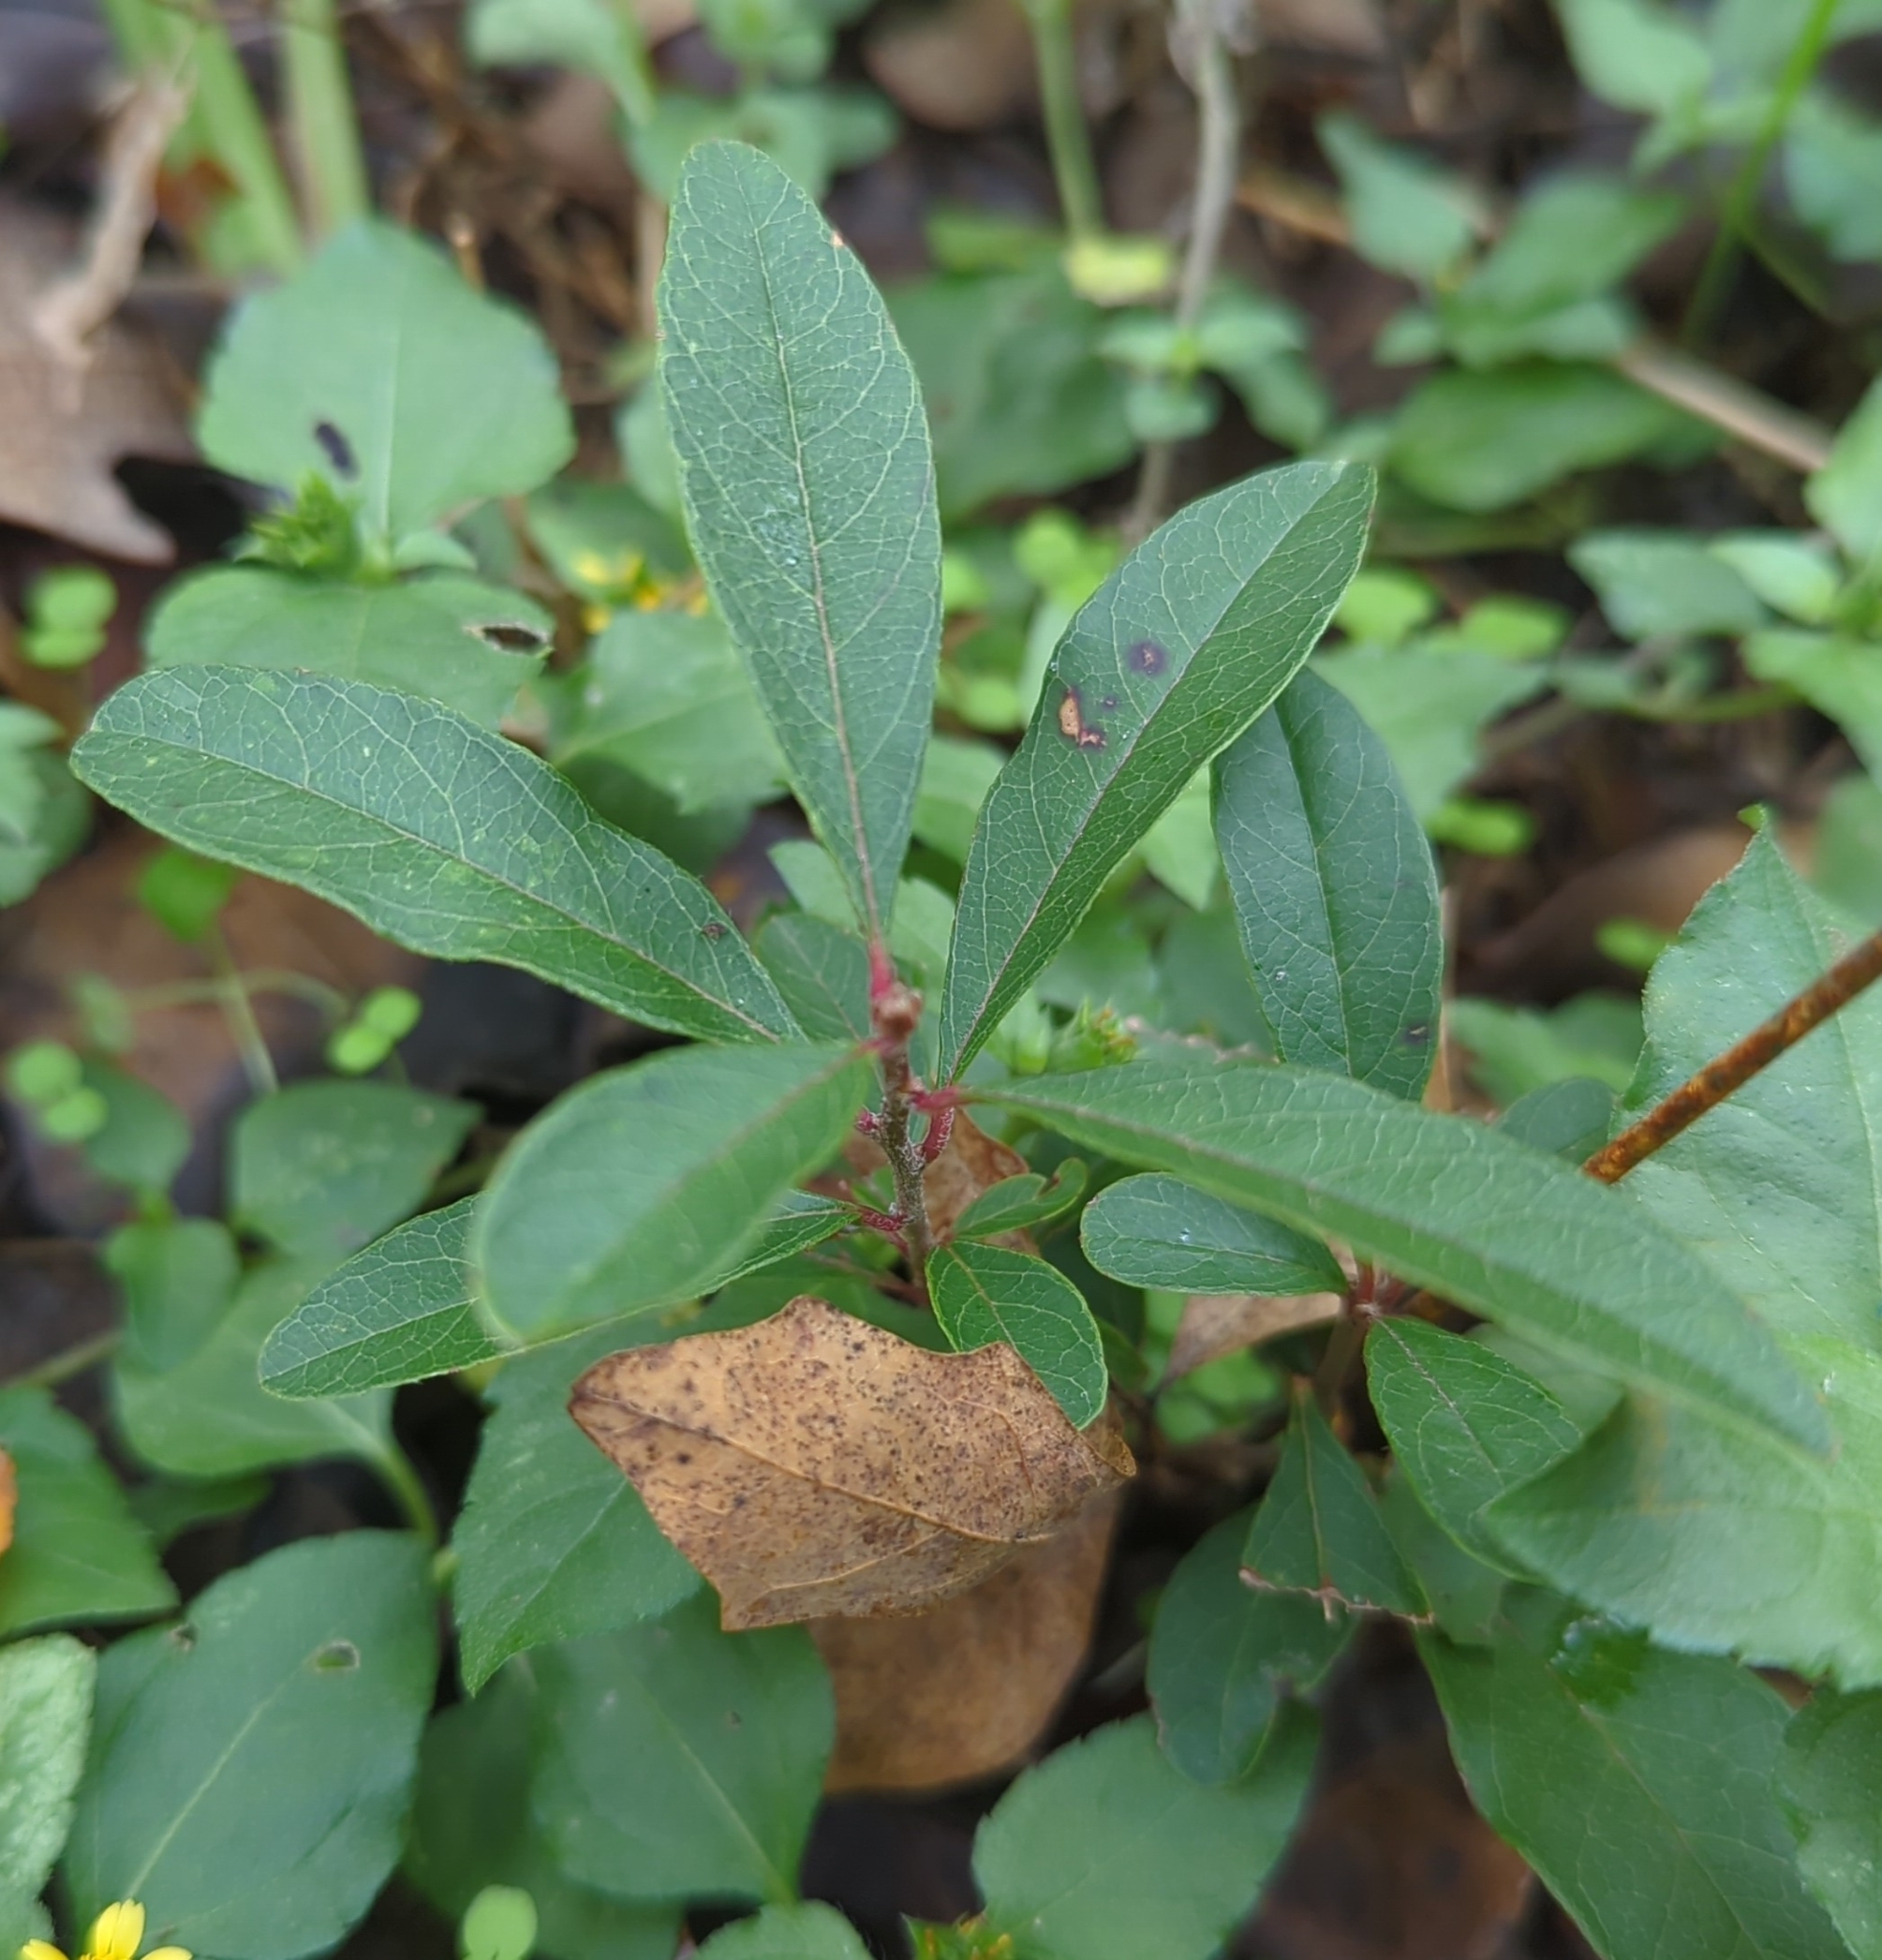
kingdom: Plantae
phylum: Tracheophyta
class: Magnoliopsida
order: Ericales
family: Sapotaceae
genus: Sideroxylon
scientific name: Sideroxylon lanuginosum
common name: Chittamwood
